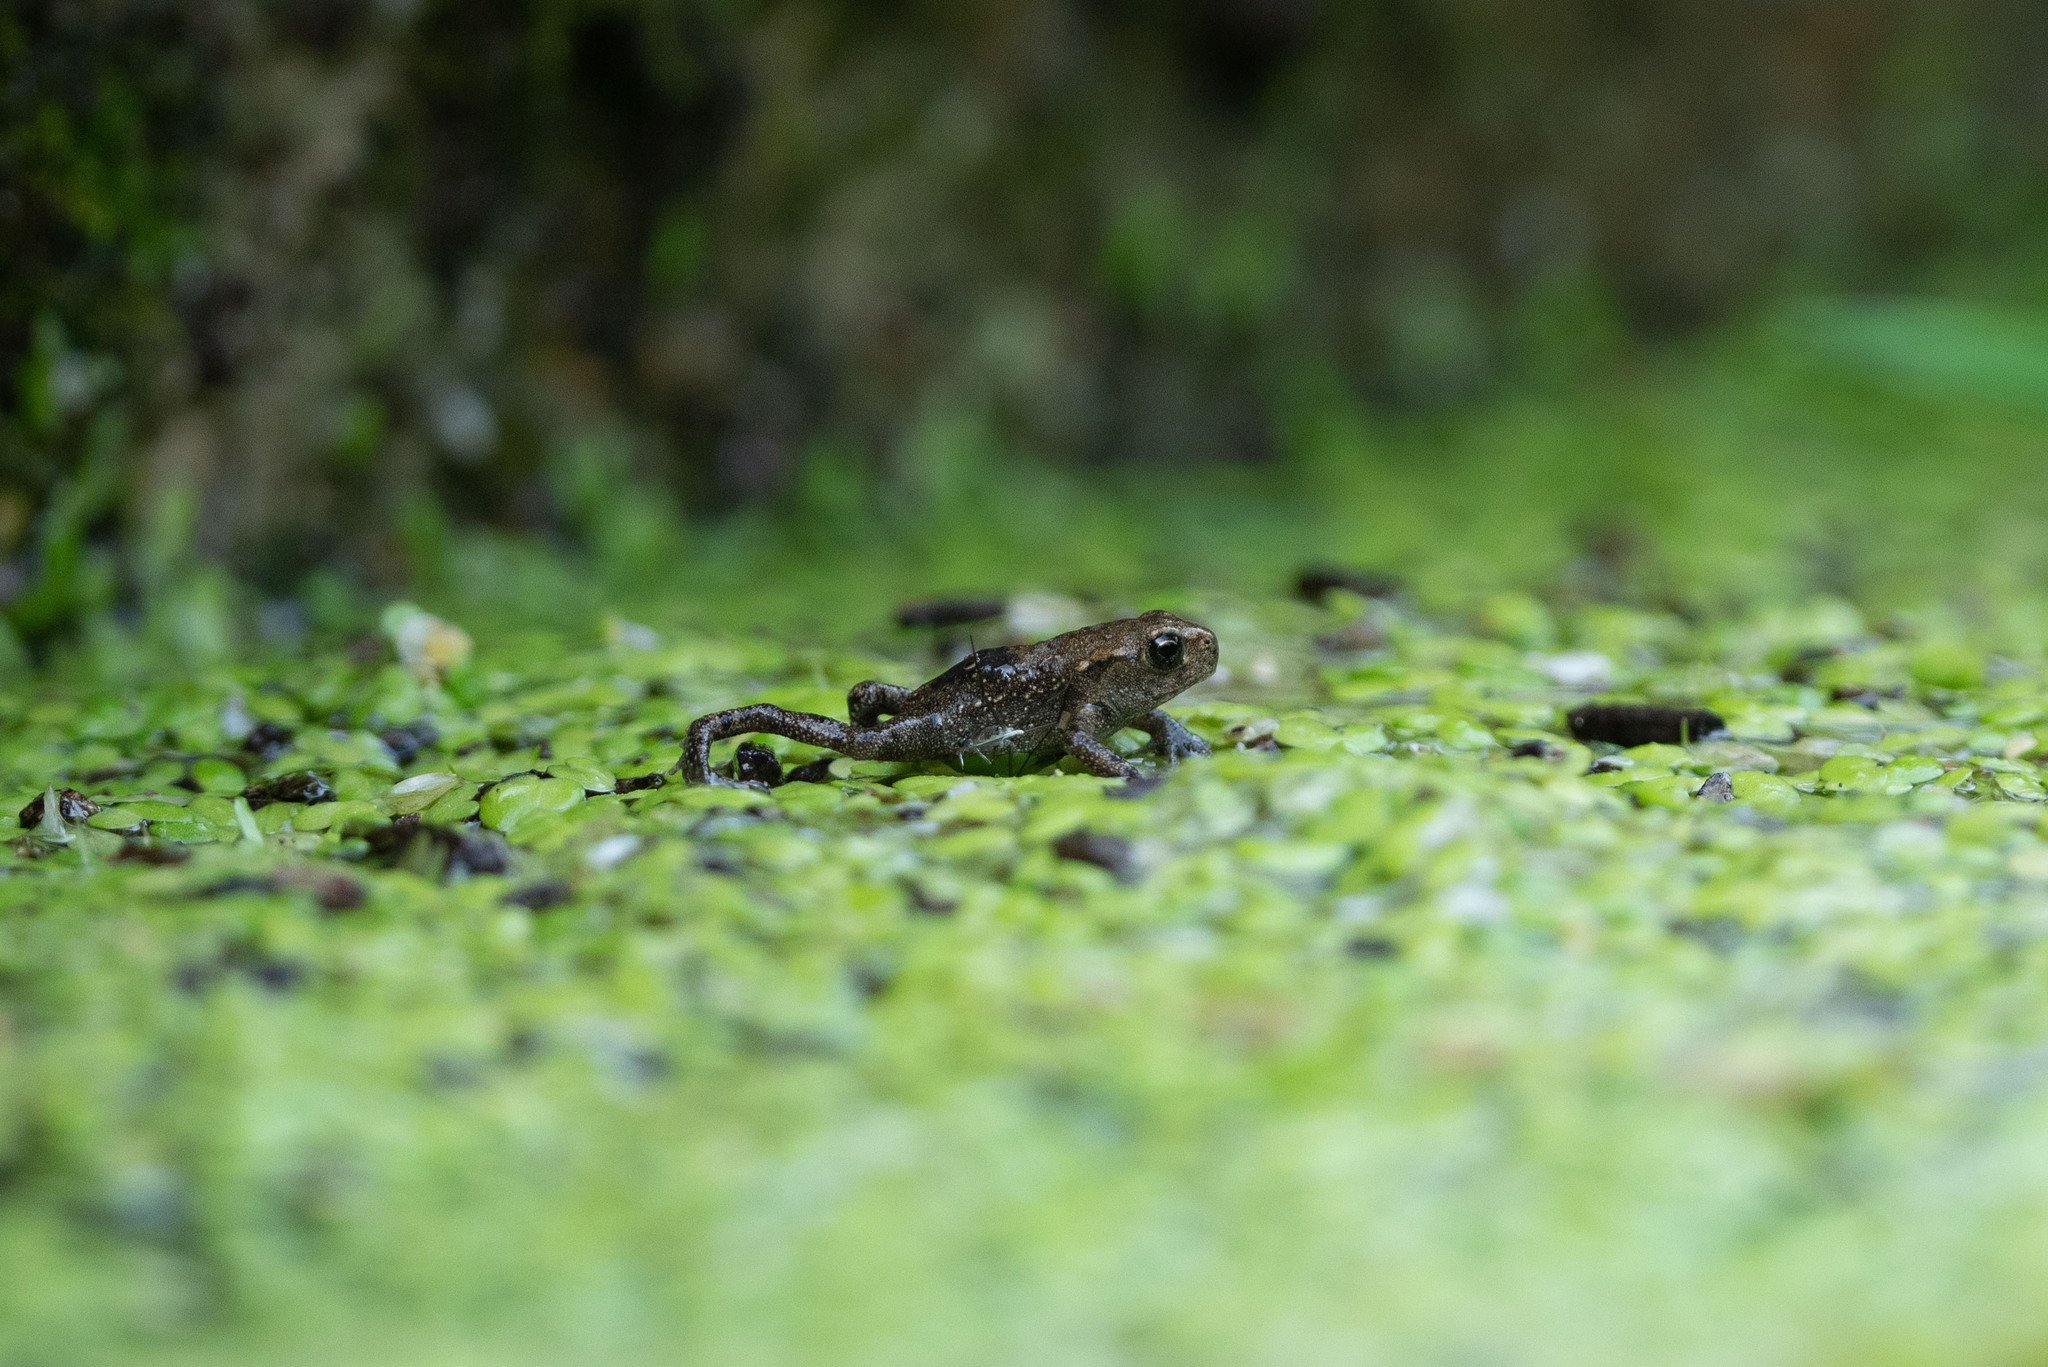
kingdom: Animalia
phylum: Chordata
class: Amphibia
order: Anura
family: Bufonidae
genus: Bufo
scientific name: Bufo bufo
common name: Common toad
